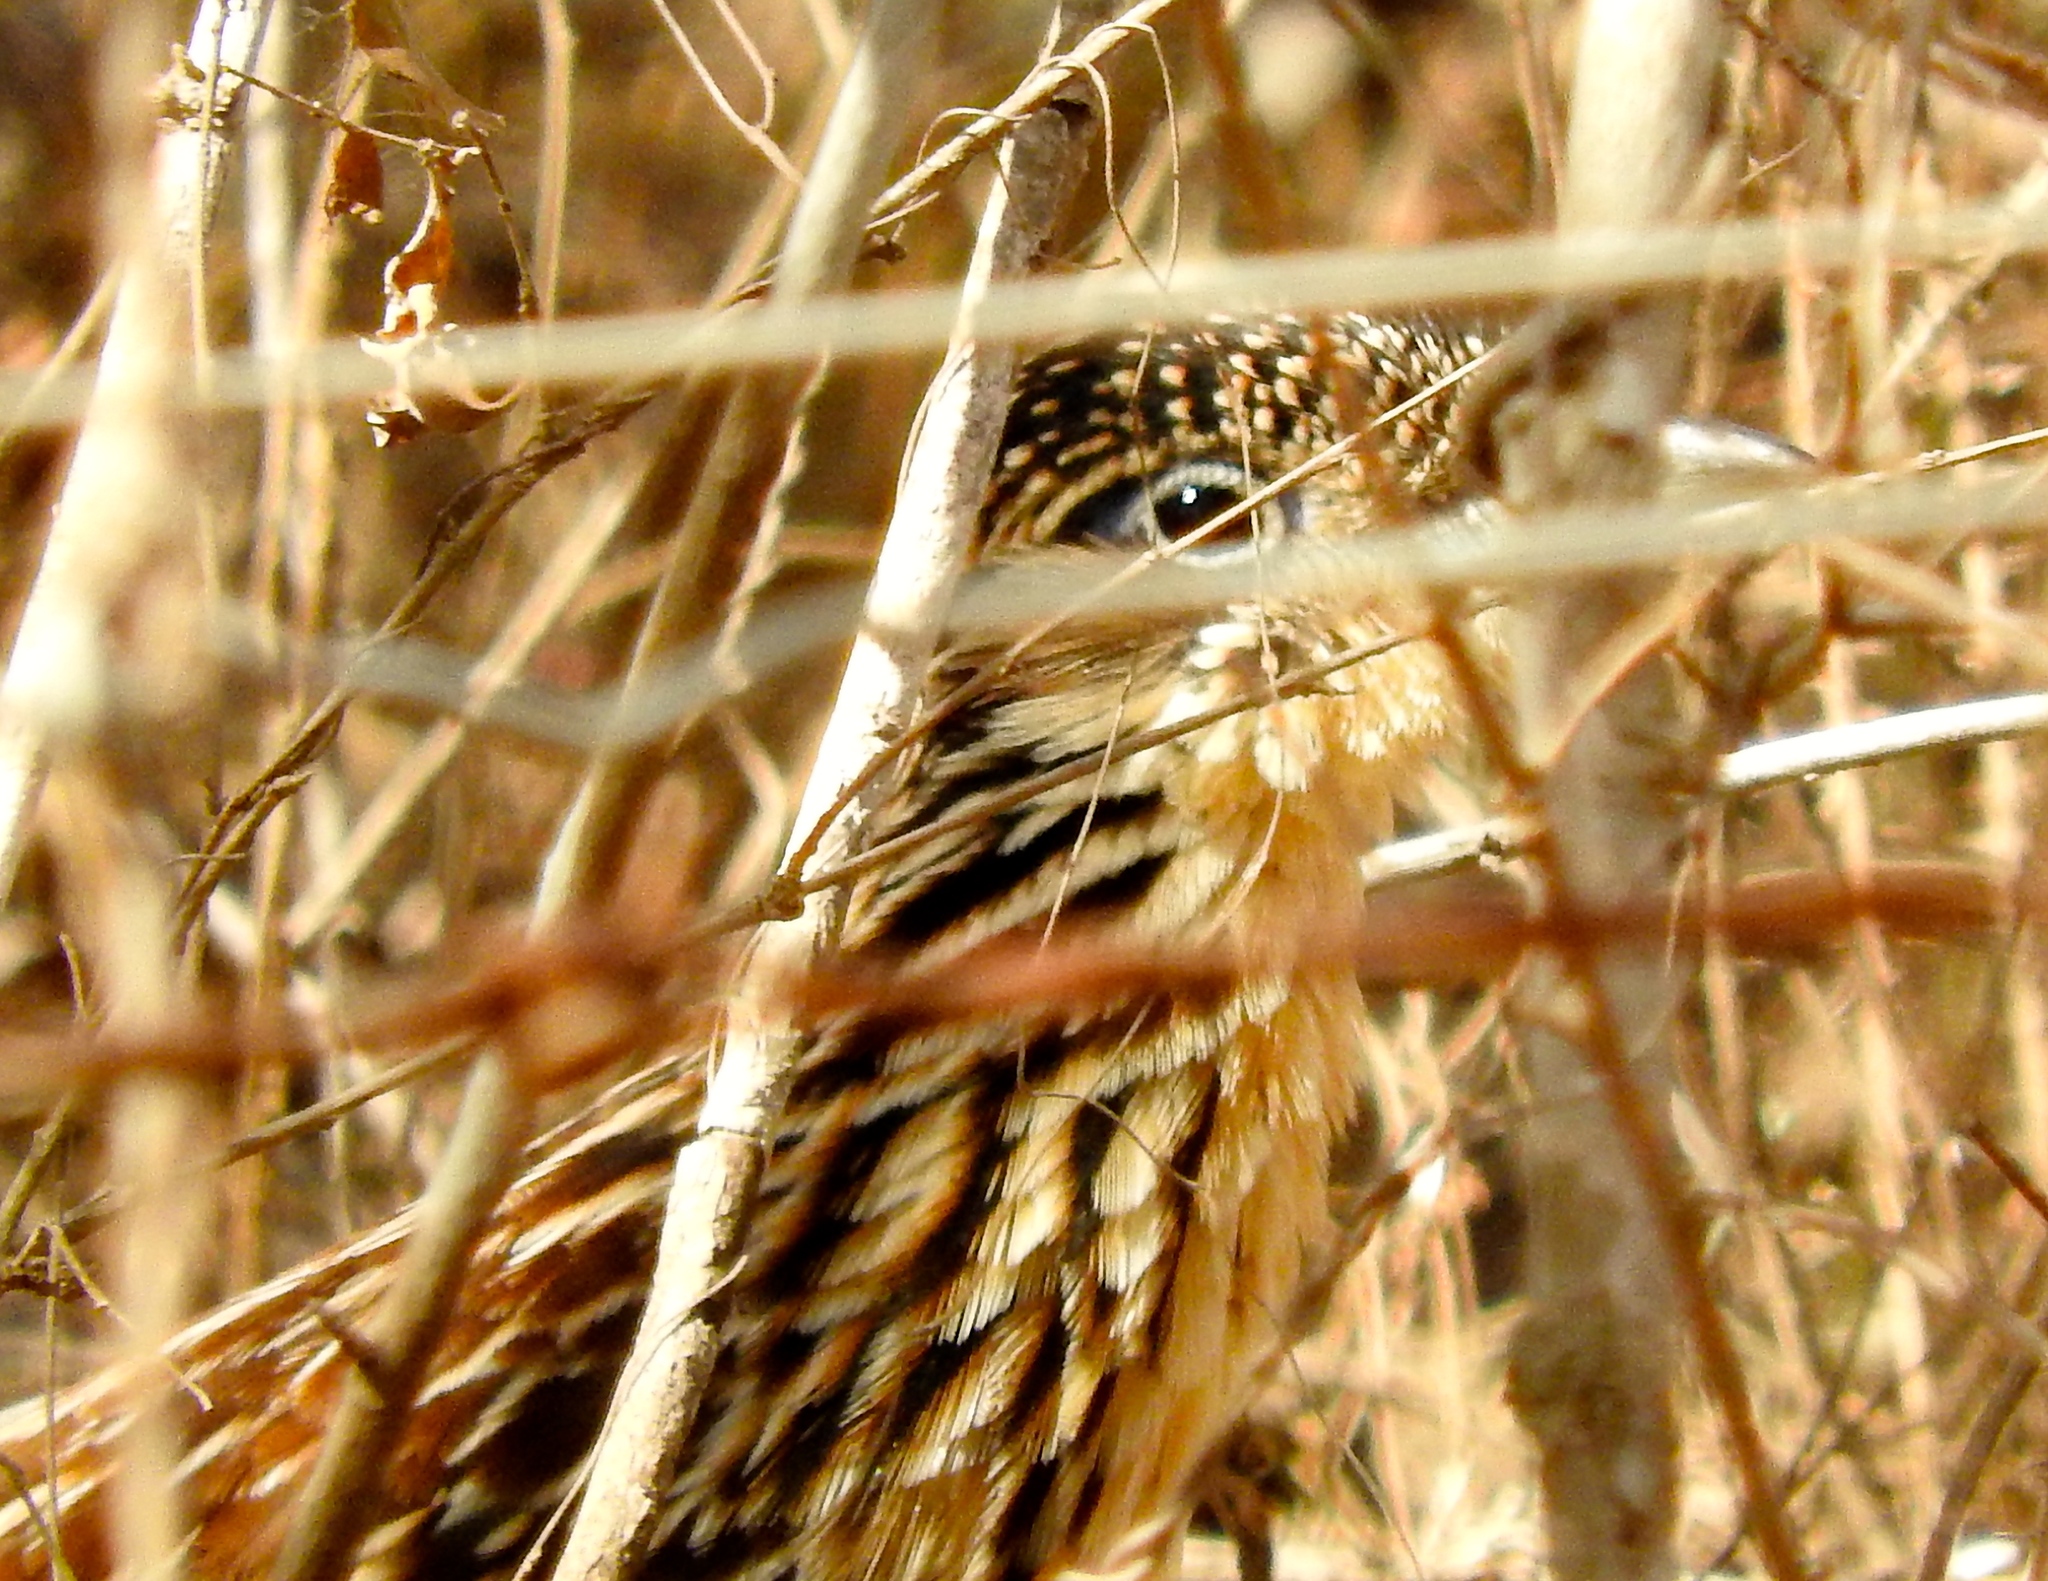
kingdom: Animalia
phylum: Chordata
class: Aves
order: Cuculiformes
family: Cuculidae
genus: Geococcyx
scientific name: Geococcyx velox
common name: Lesser roadrunner
